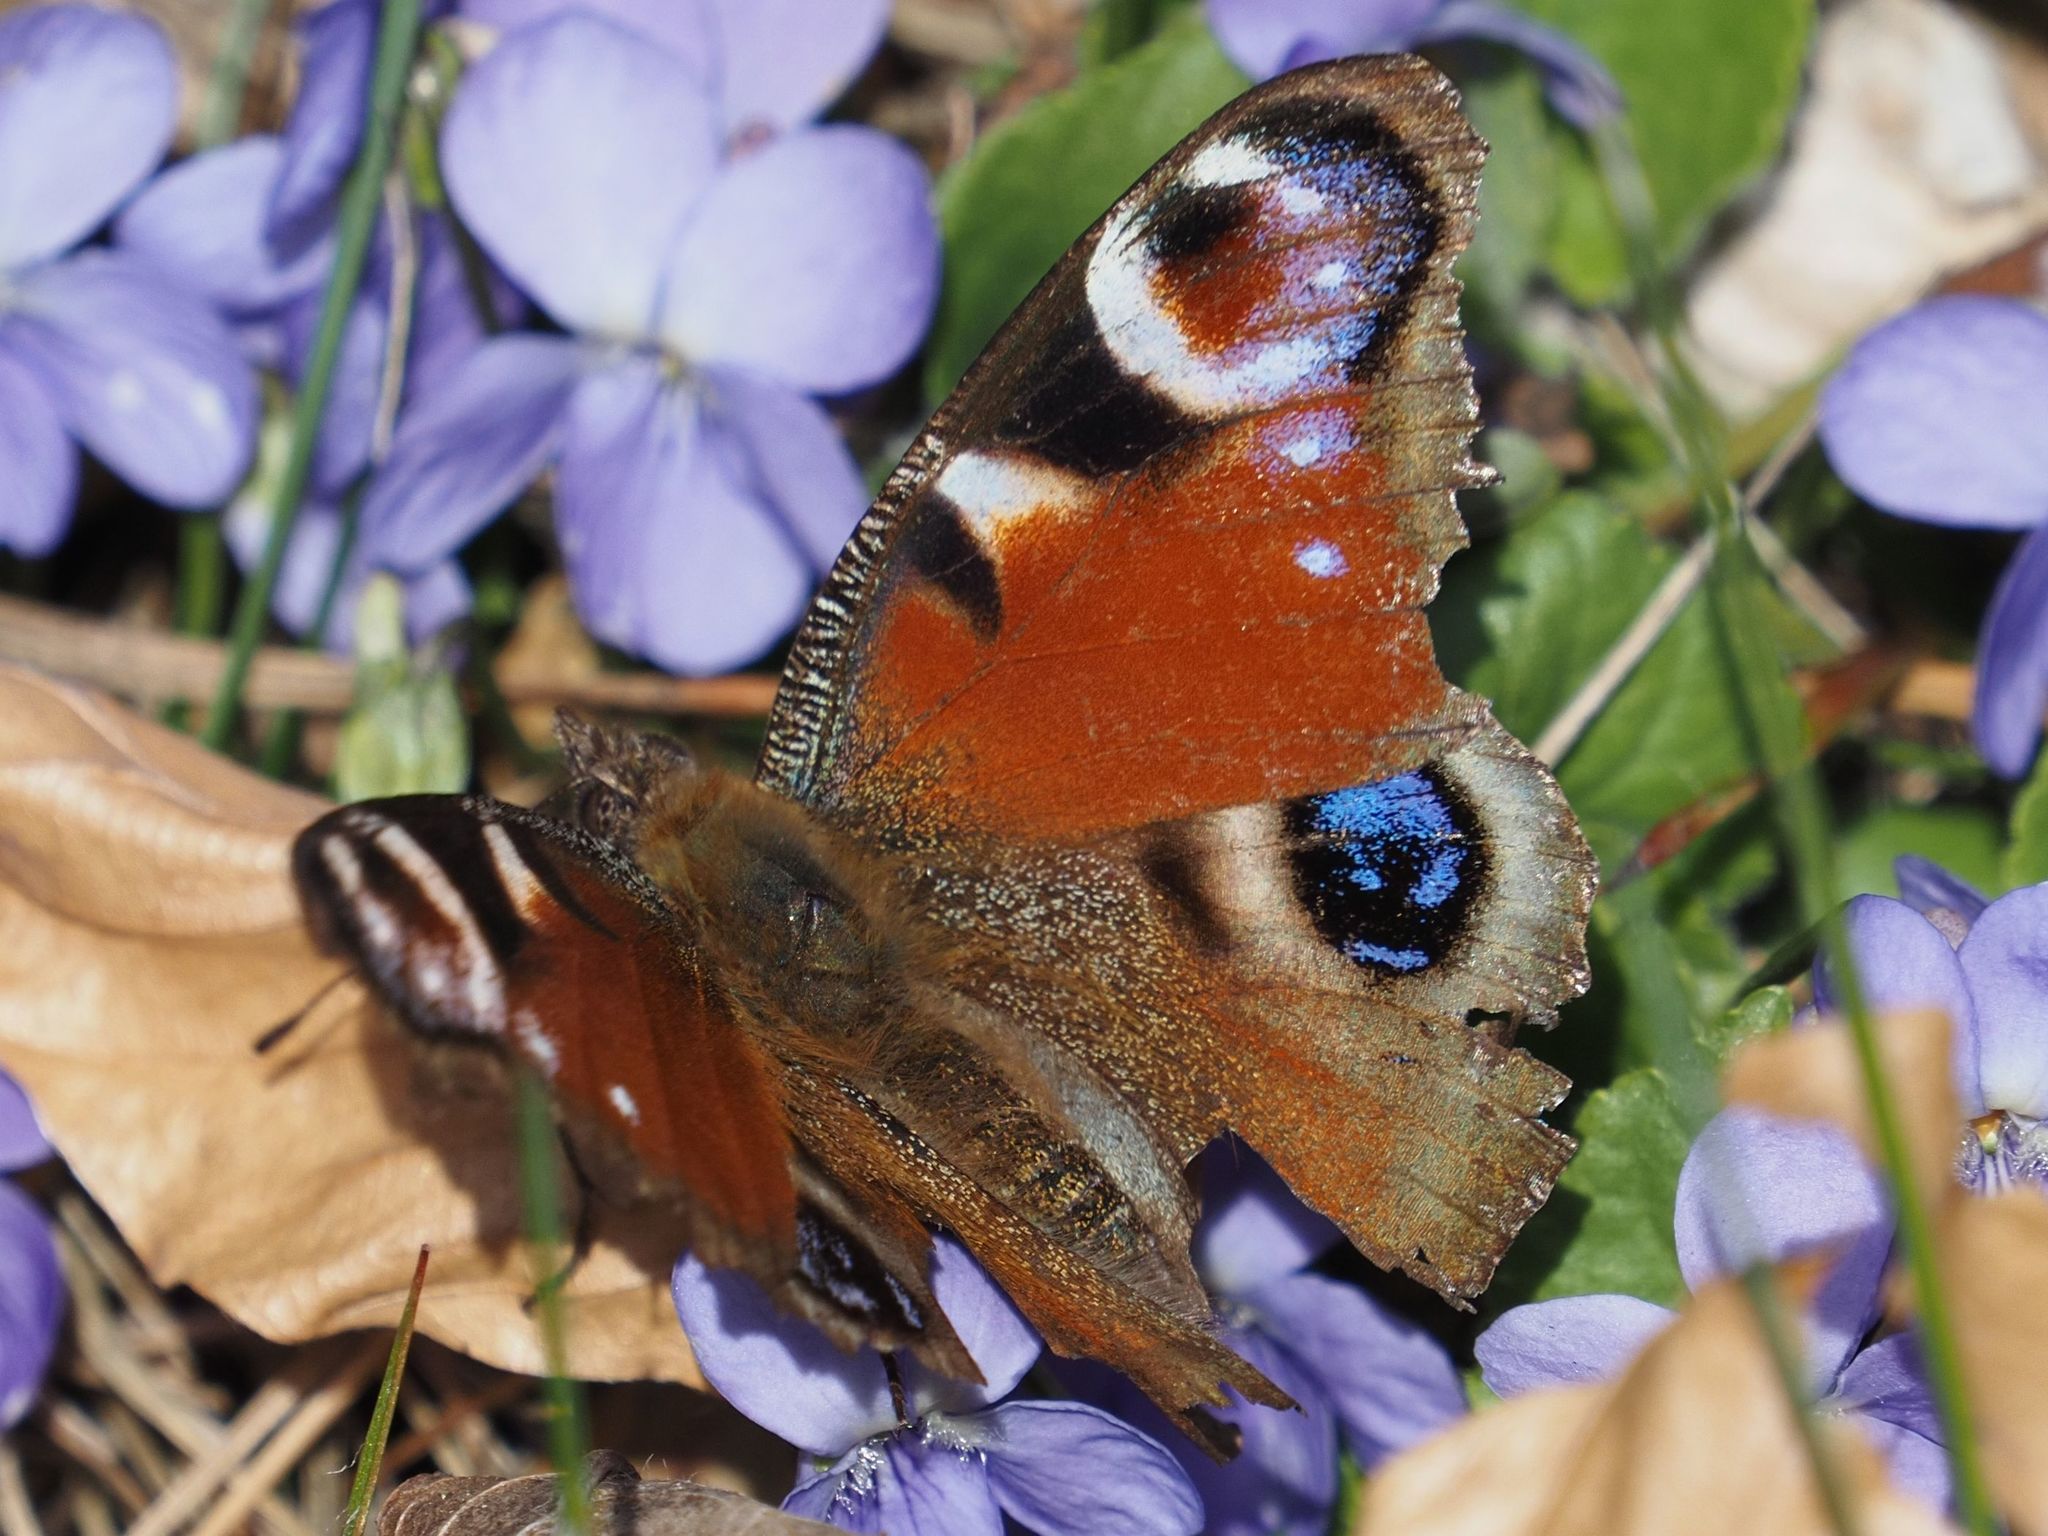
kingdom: Animalia
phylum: Arthropoda
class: Insecta
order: Lepidoptera
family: Nymphalidae
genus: Aglais
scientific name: Aglais io
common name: Peacock
